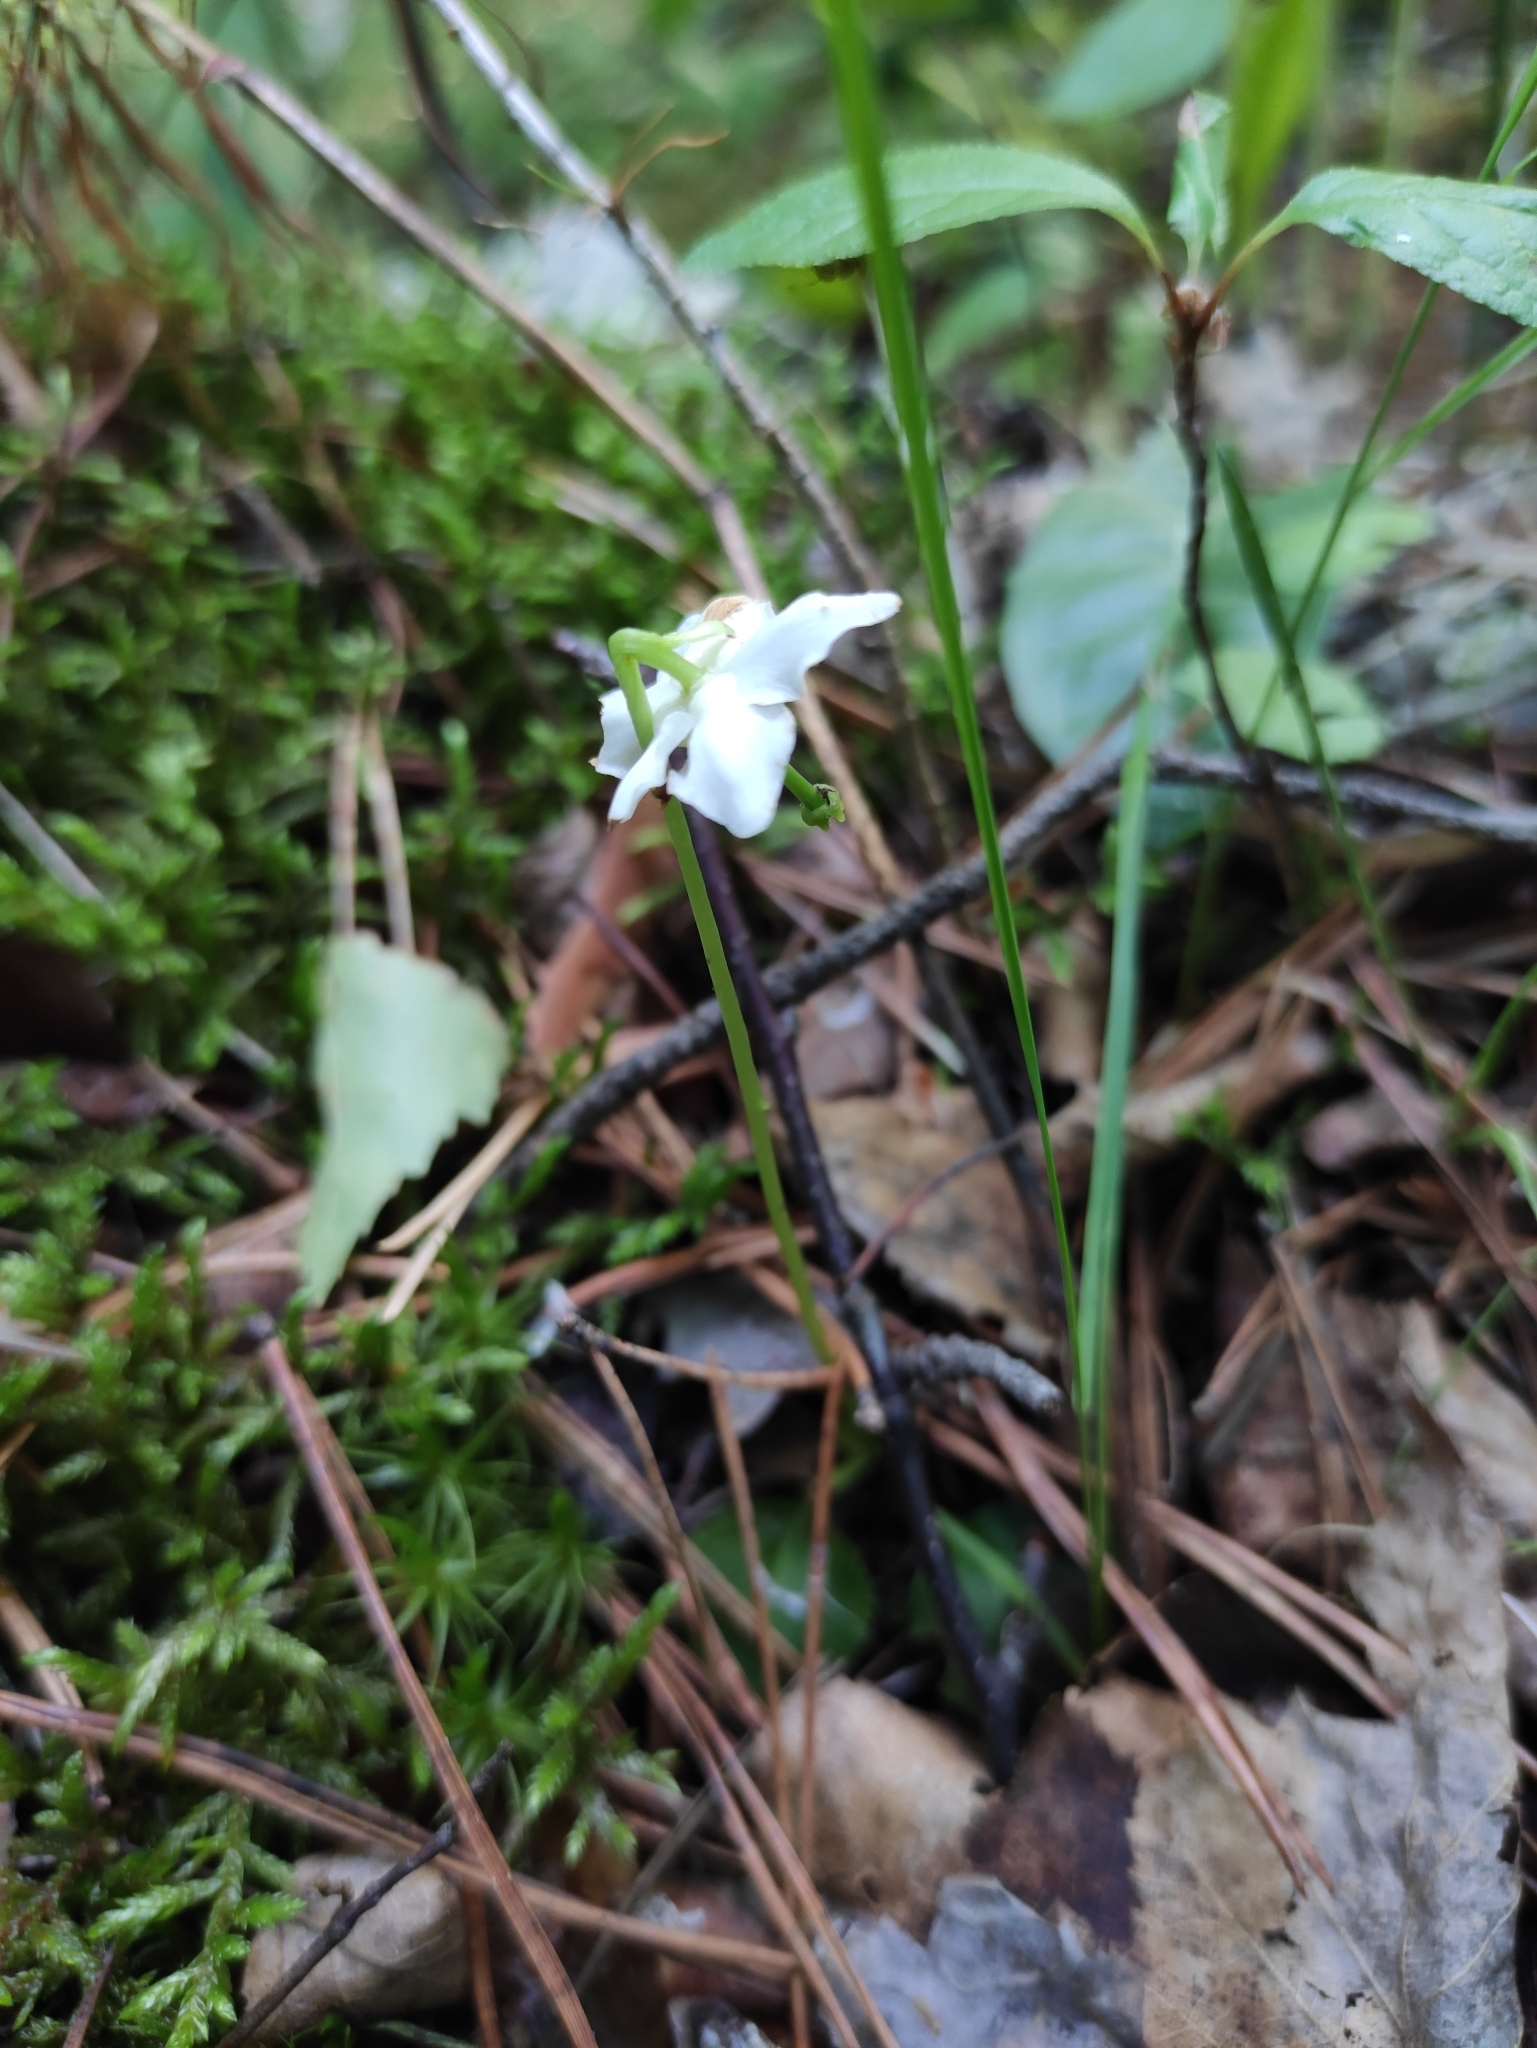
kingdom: Plantae
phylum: Tracheophyta
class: Magnoliopsida
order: Ericales
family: Ericaceae
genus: Moneses
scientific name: Moneses uniflora
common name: One-flowered wintergreen
